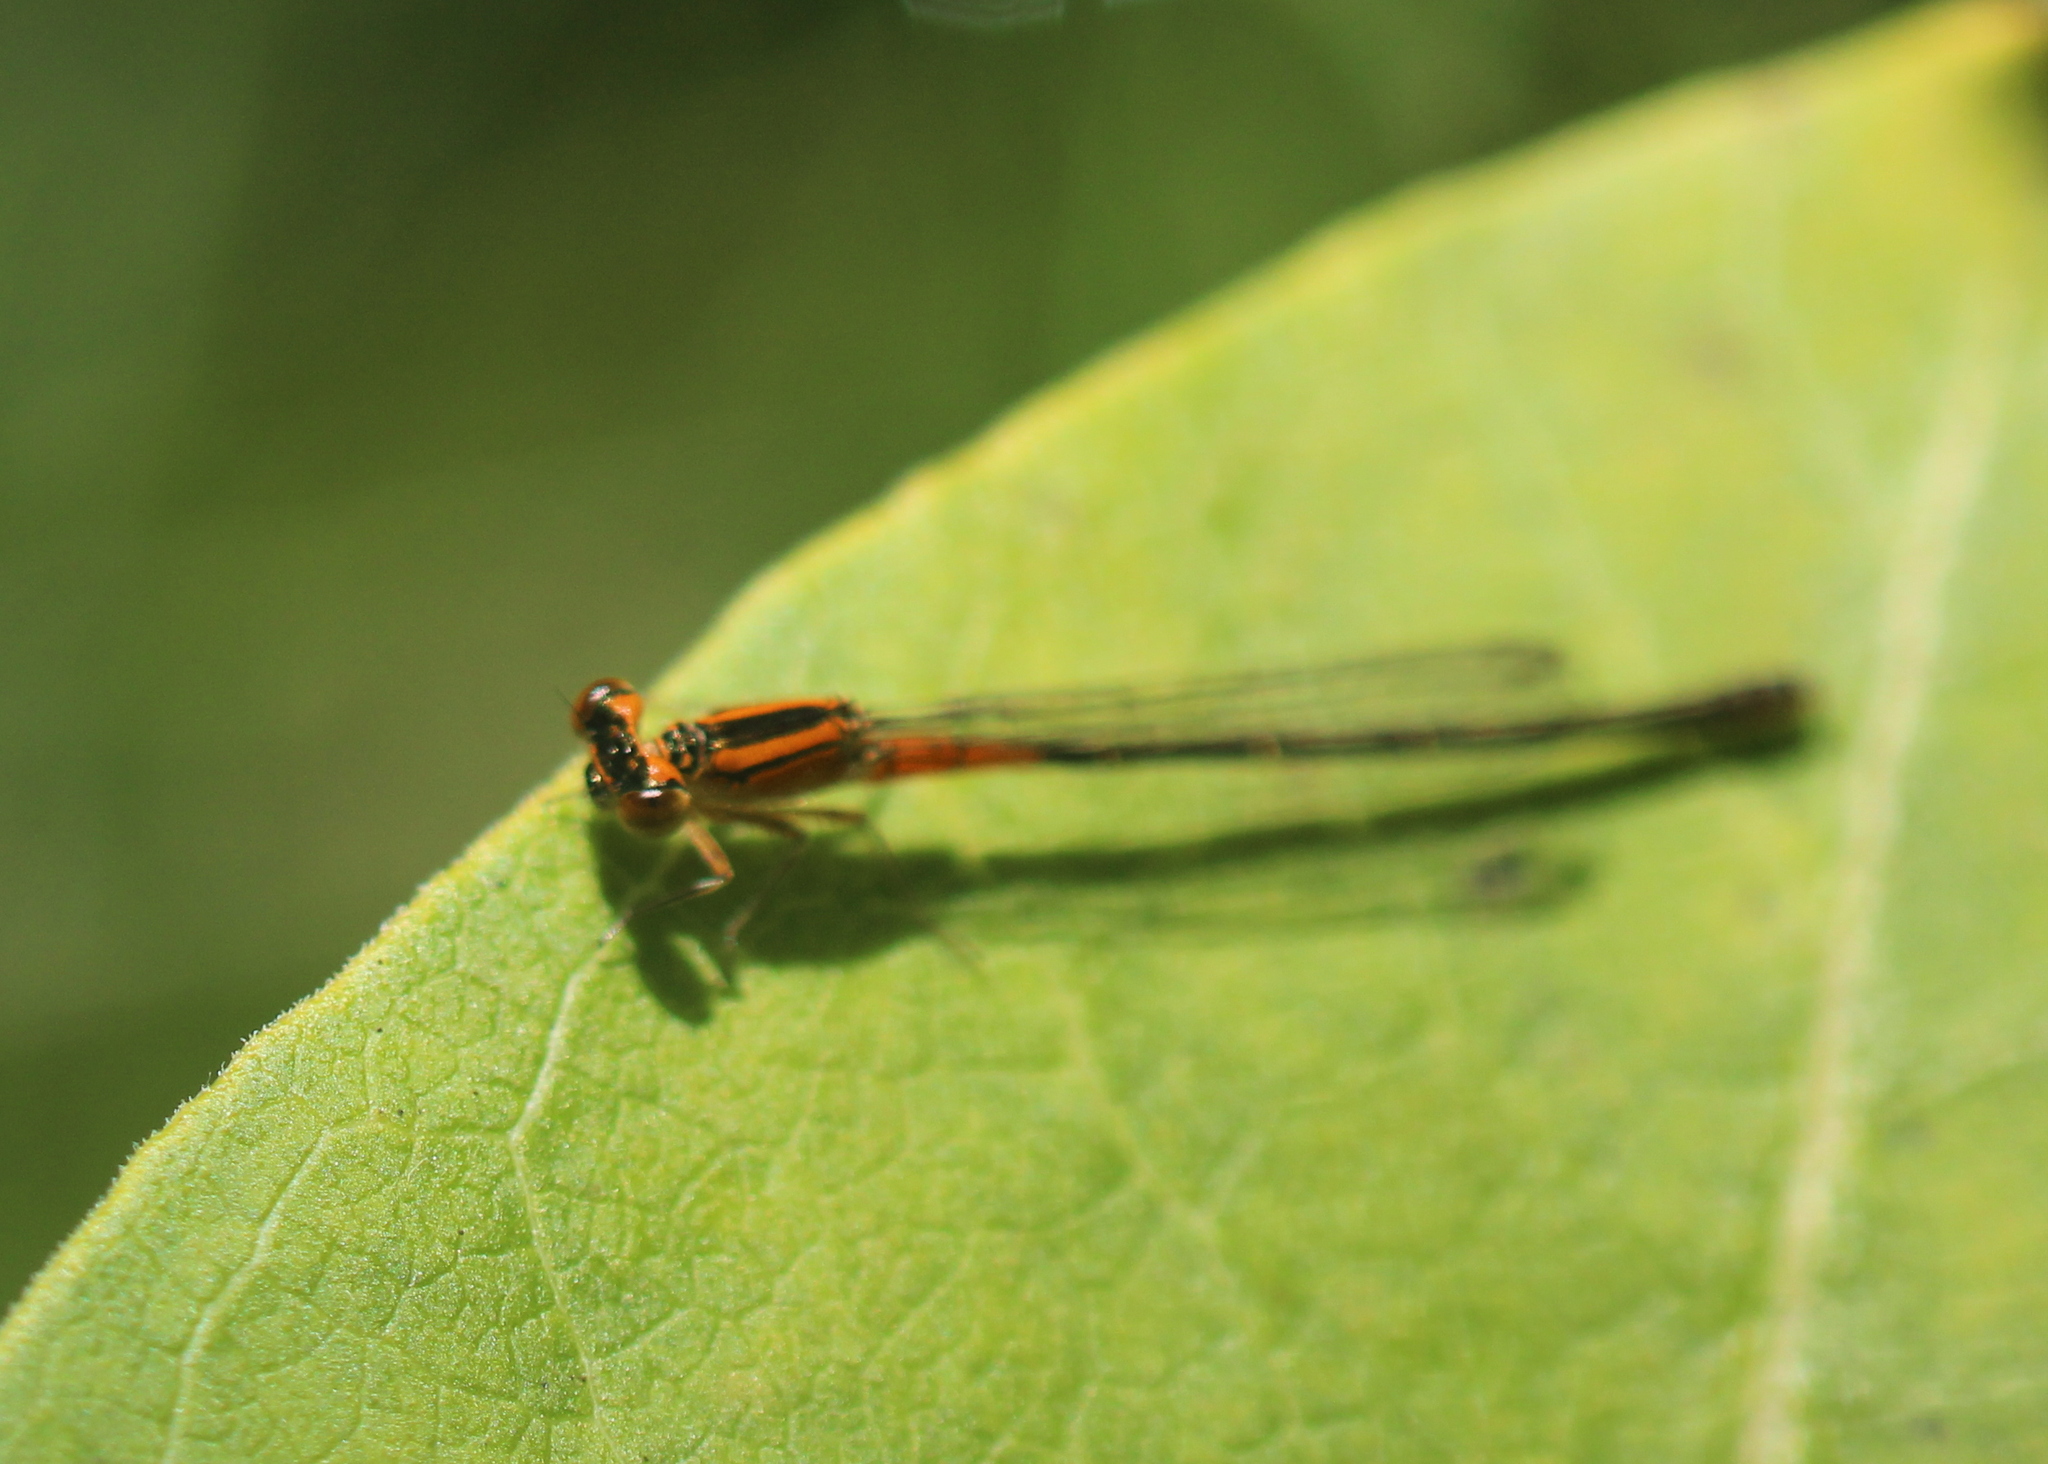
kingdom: Animalia
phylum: Arthropoda
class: Insecta
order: Odonata
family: Coenagrionidae
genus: Ischnura
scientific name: Ischnura verticalis
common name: Eastern forktail
